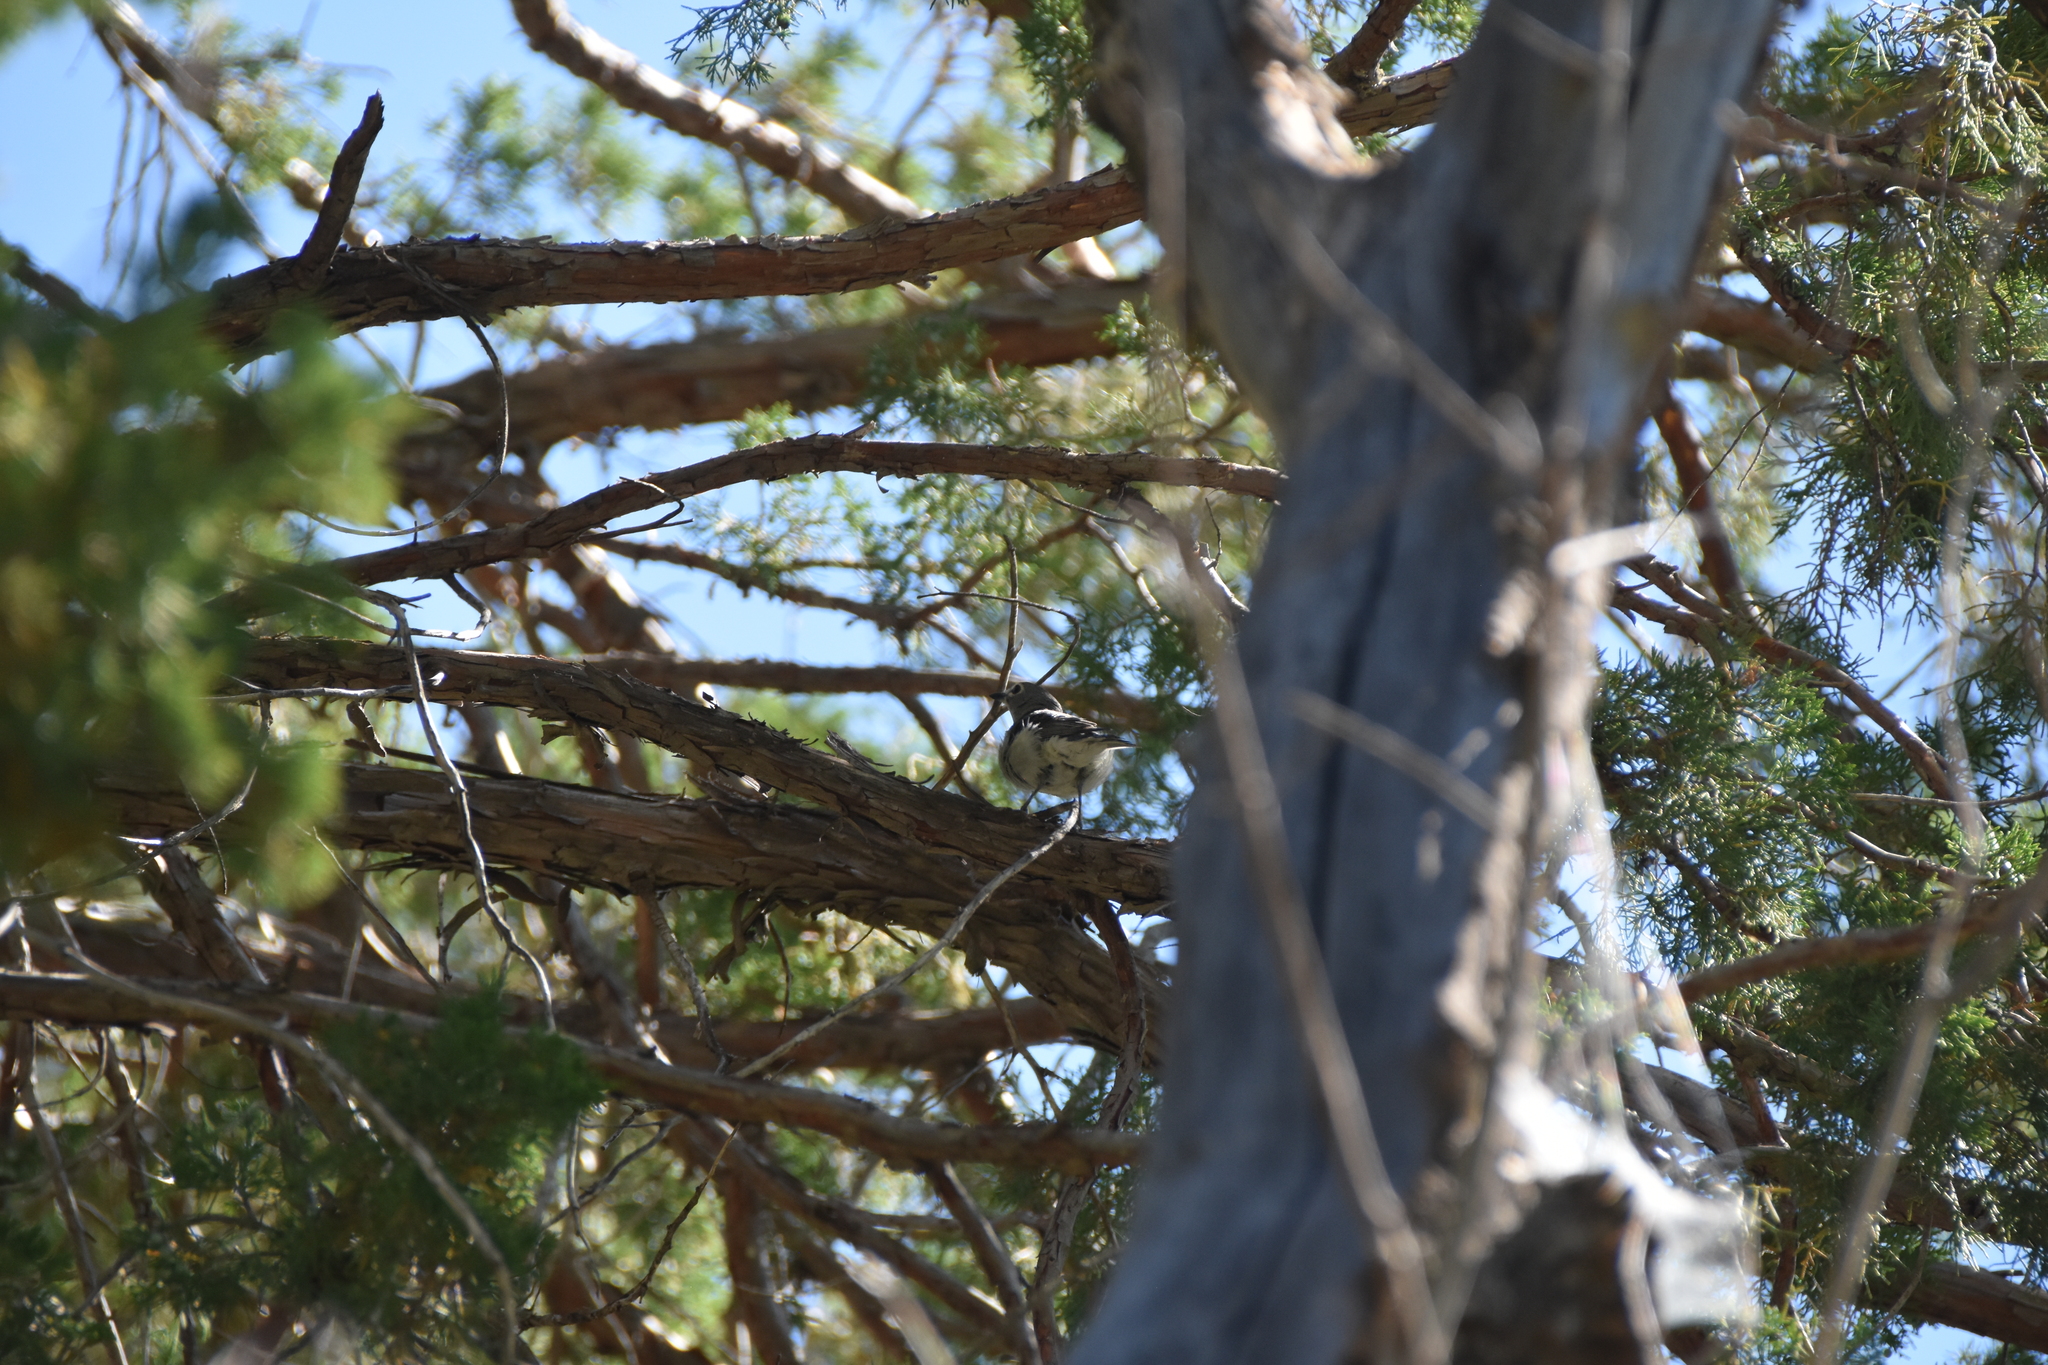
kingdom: Animalia
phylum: Chordata
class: Aves
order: Passeriformes
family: Vireonidae
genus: Vireo
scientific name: Vireo plumbeus
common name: Plumbeous vireo
